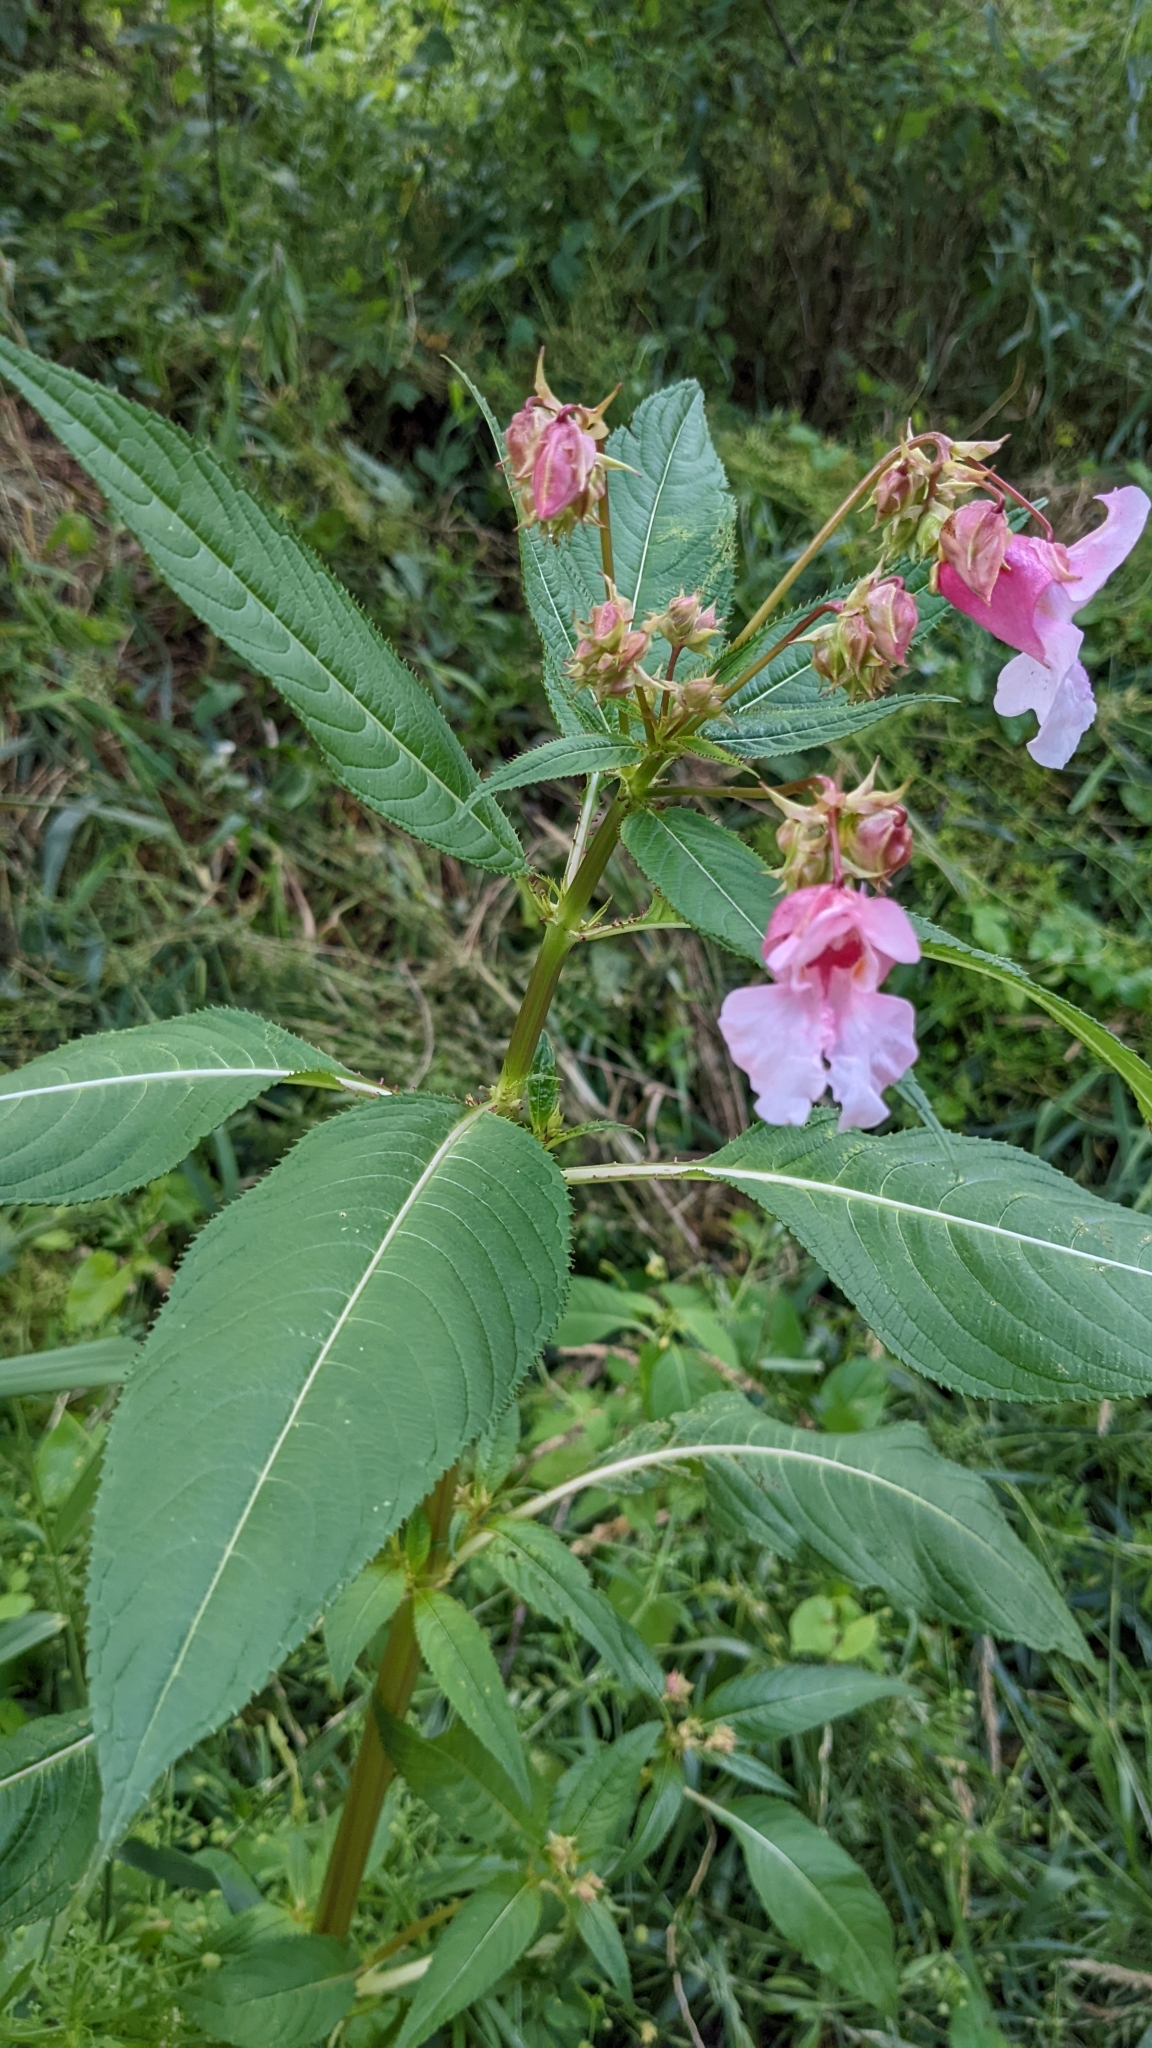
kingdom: Plantae
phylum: Tracheophyta
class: Magnoliopsida
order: Ericales
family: Balsaminaceae
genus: Impatiens
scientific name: Impatiens glandulifera
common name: Himalayan balsam
